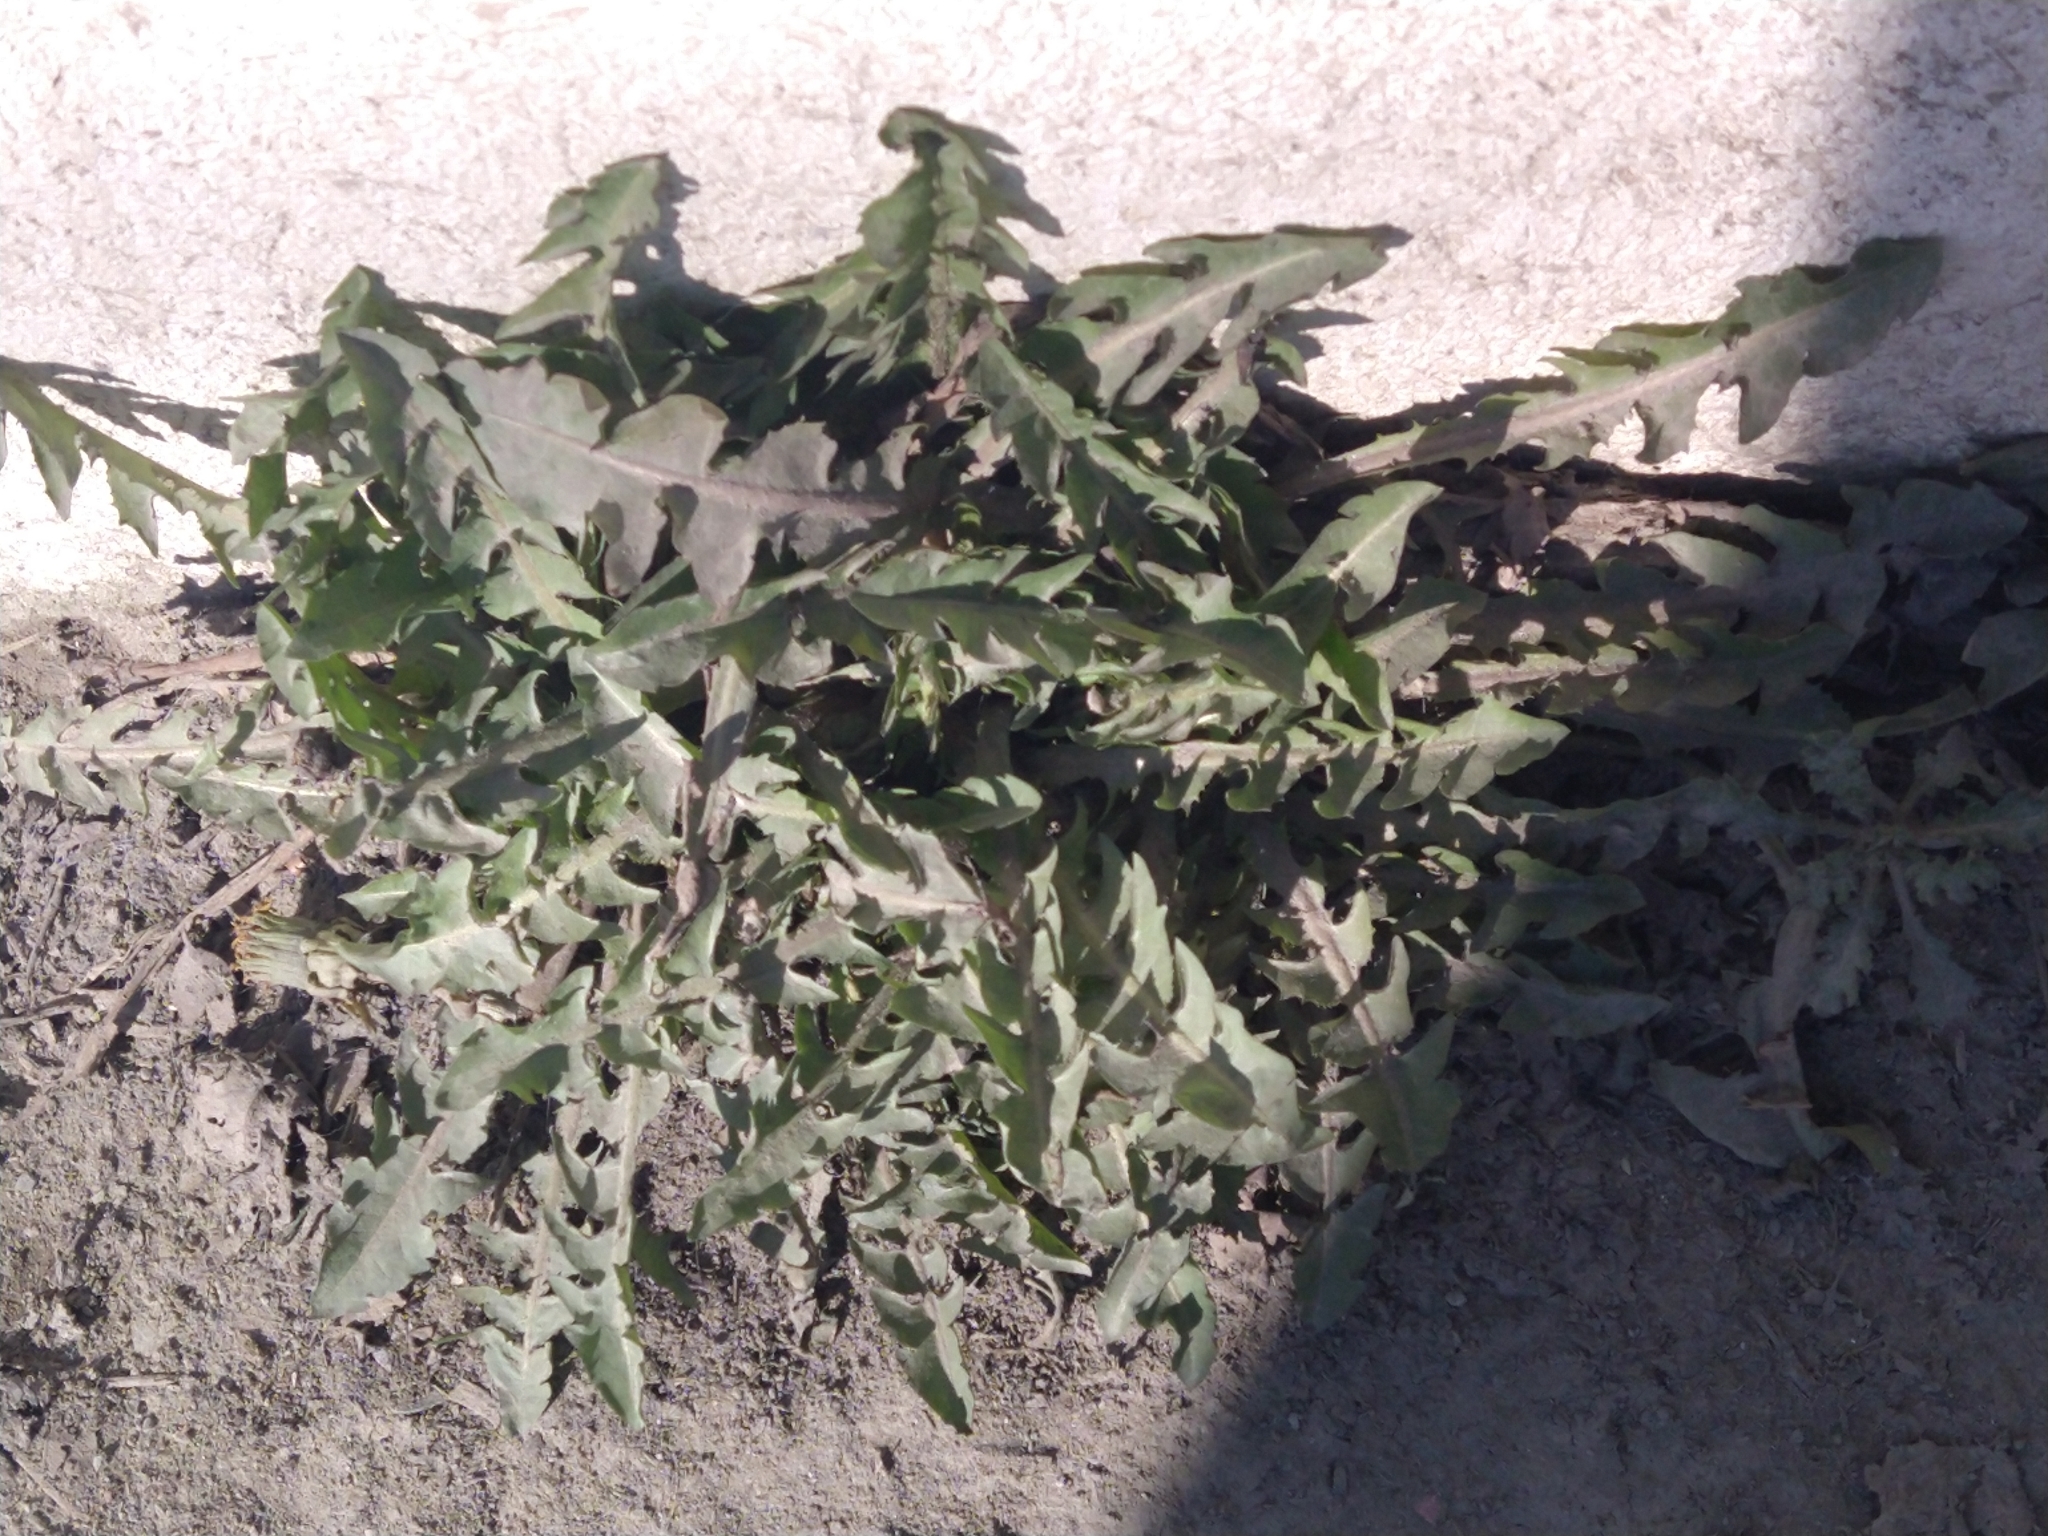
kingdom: Plantae
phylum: Tracheophyta
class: Magnoliopsida
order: Asterales
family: Asteraceae
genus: Taraxacum
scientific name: Taraxacum officinale
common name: Common dandelion
